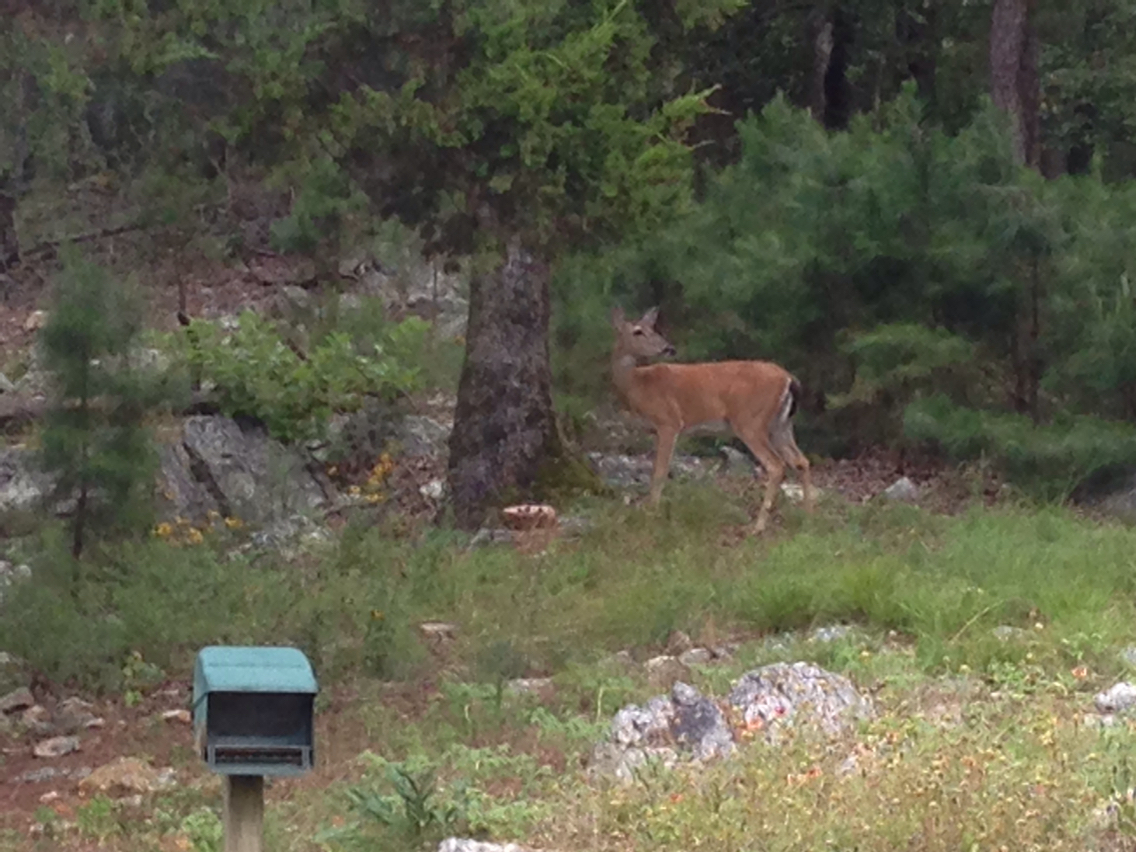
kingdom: Animalia
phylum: Chordata
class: Mammalia
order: Artiodactyla
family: Cervidae
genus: Odocoileus
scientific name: Odocoileus virginianus
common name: White-tailed deer
